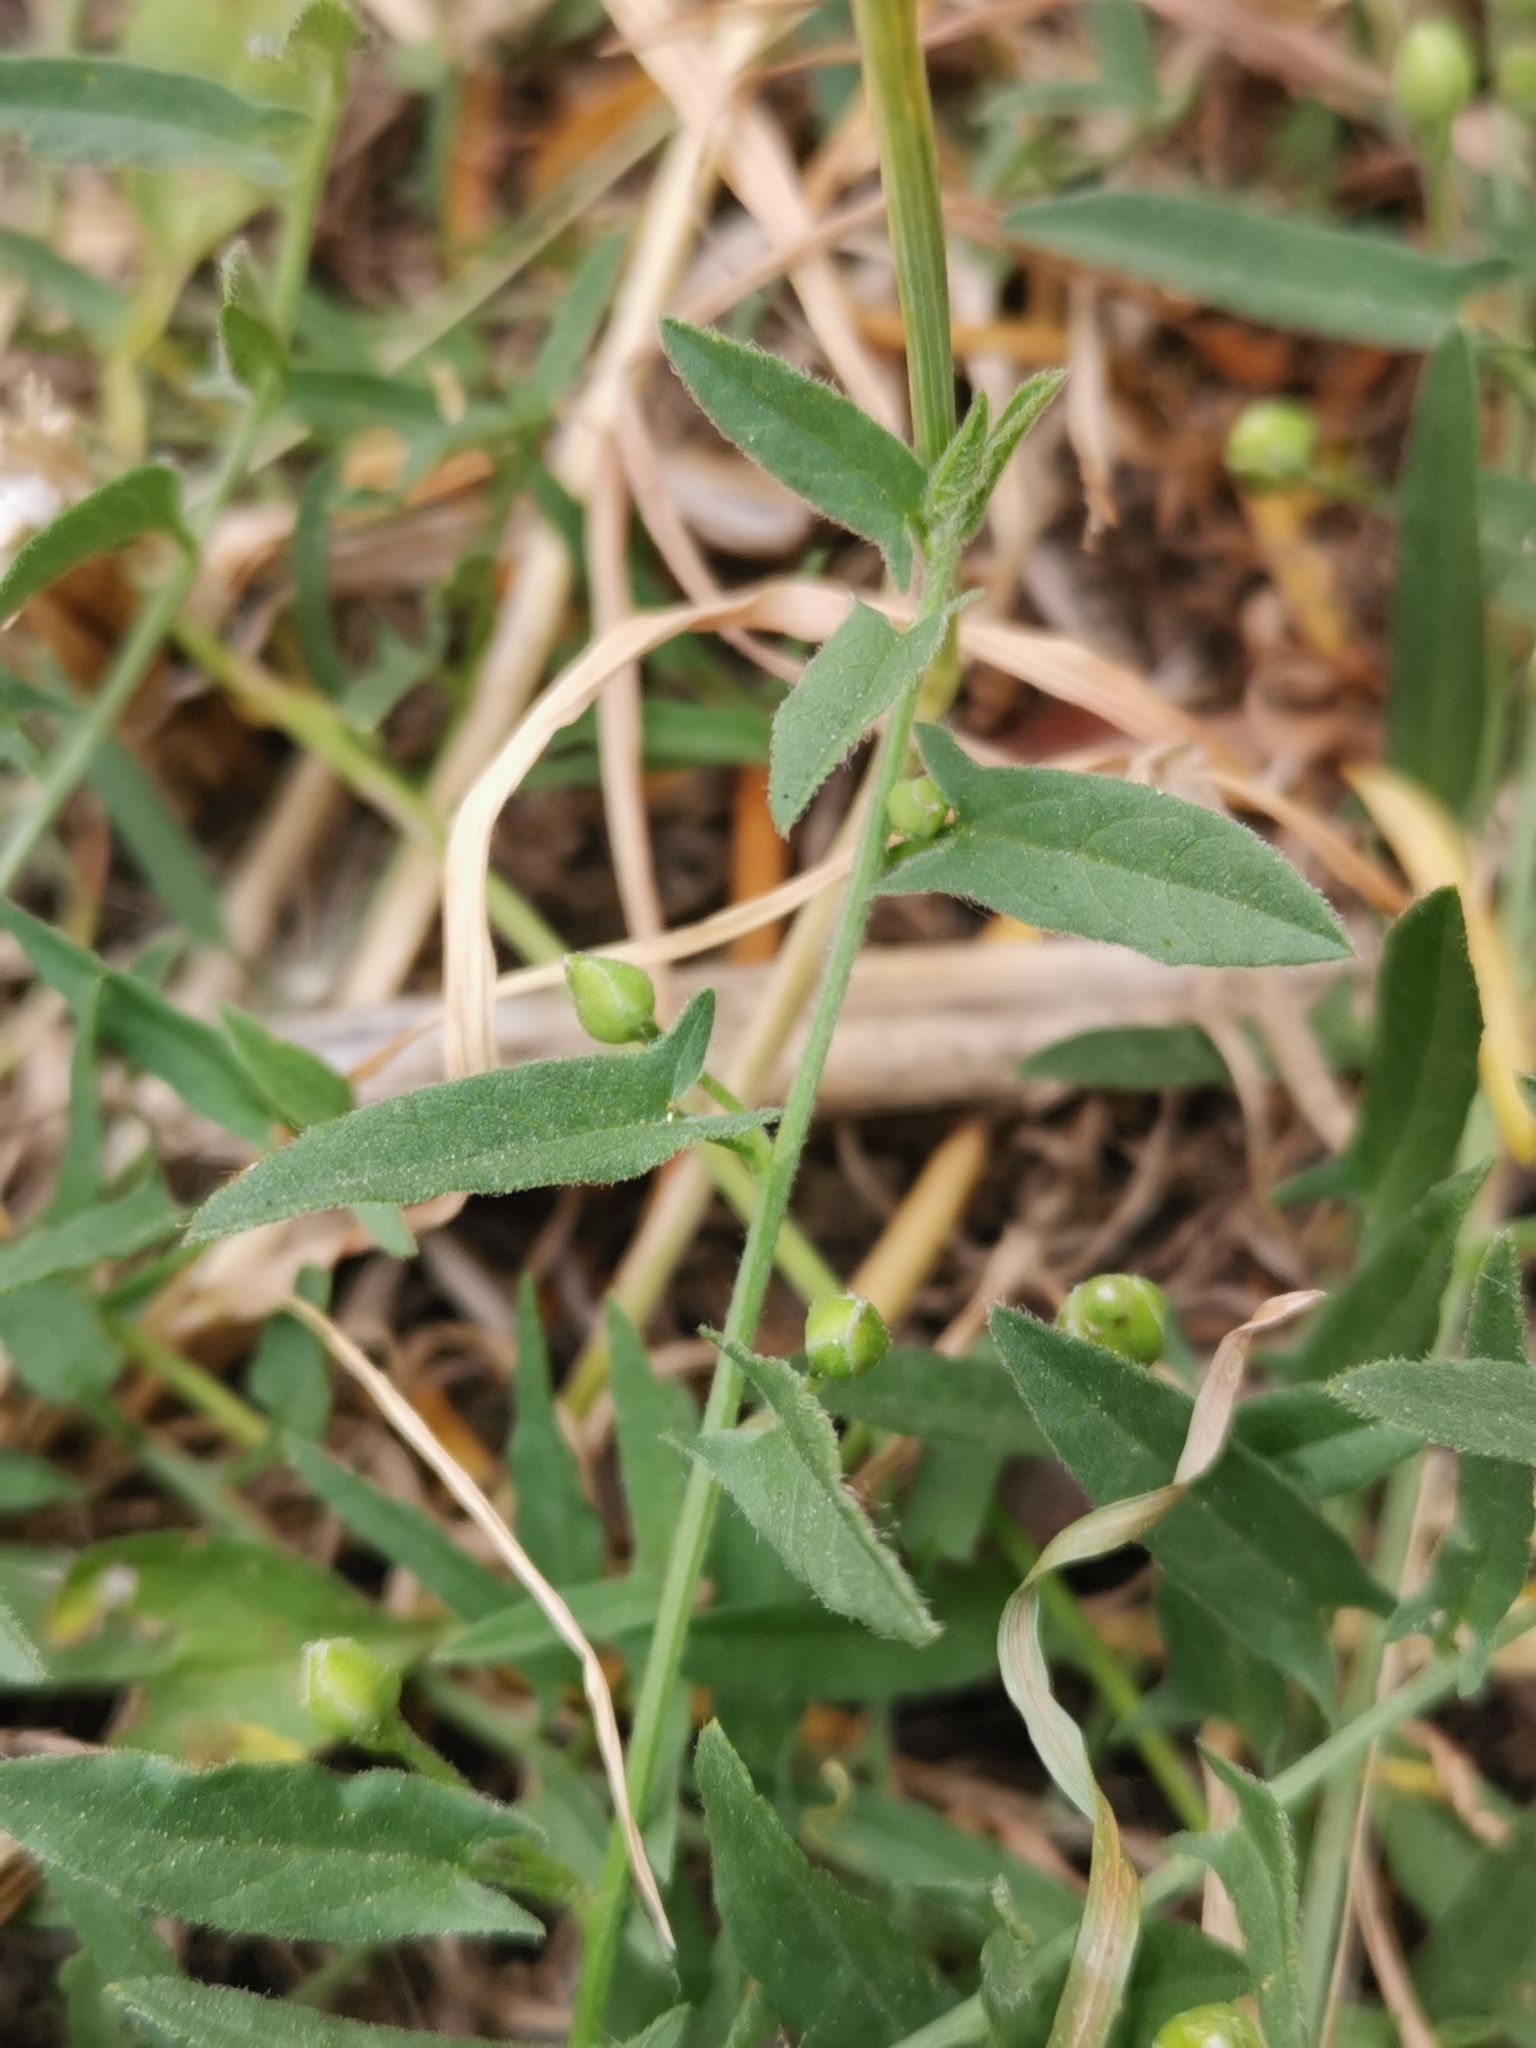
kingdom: Plantae
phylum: Tracheophyta
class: Magnoliopsida
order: Solanales
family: Convolvulaceae
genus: Convolvulus
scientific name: Convolvulus arvensis
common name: Field bindweed
